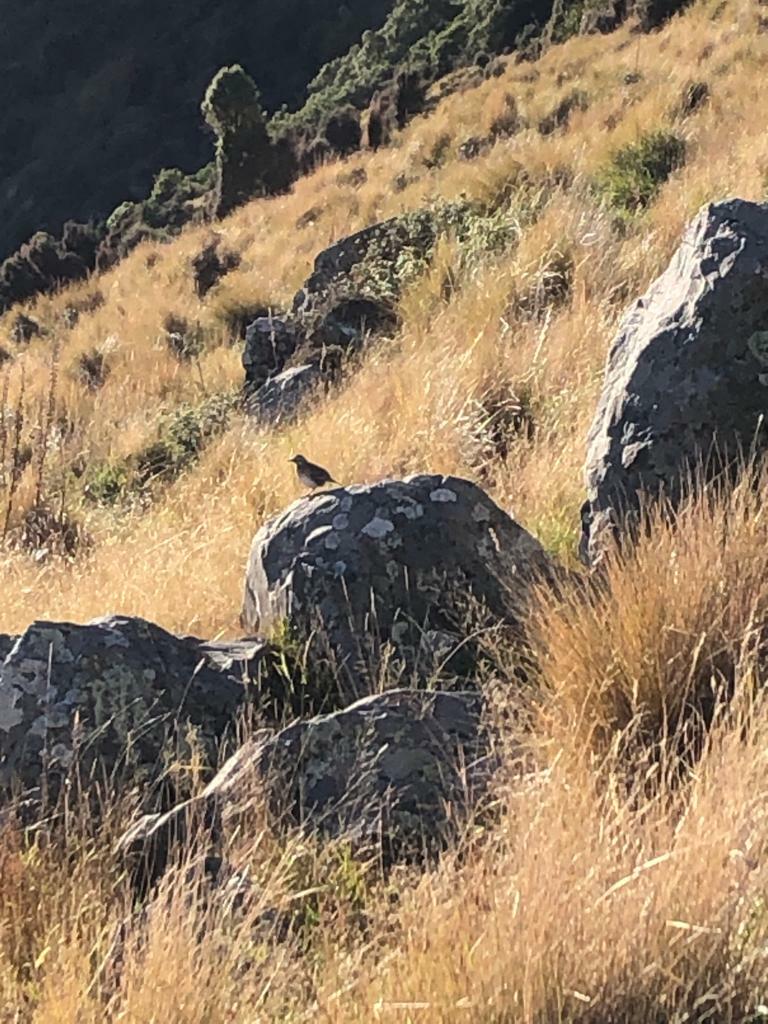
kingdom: Animalia
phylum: Chordata
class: Aves
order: Passeriformes
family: Motacillidae
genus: Anthus
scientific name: Anthus novaeseelandiae
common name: New zealand pipit
